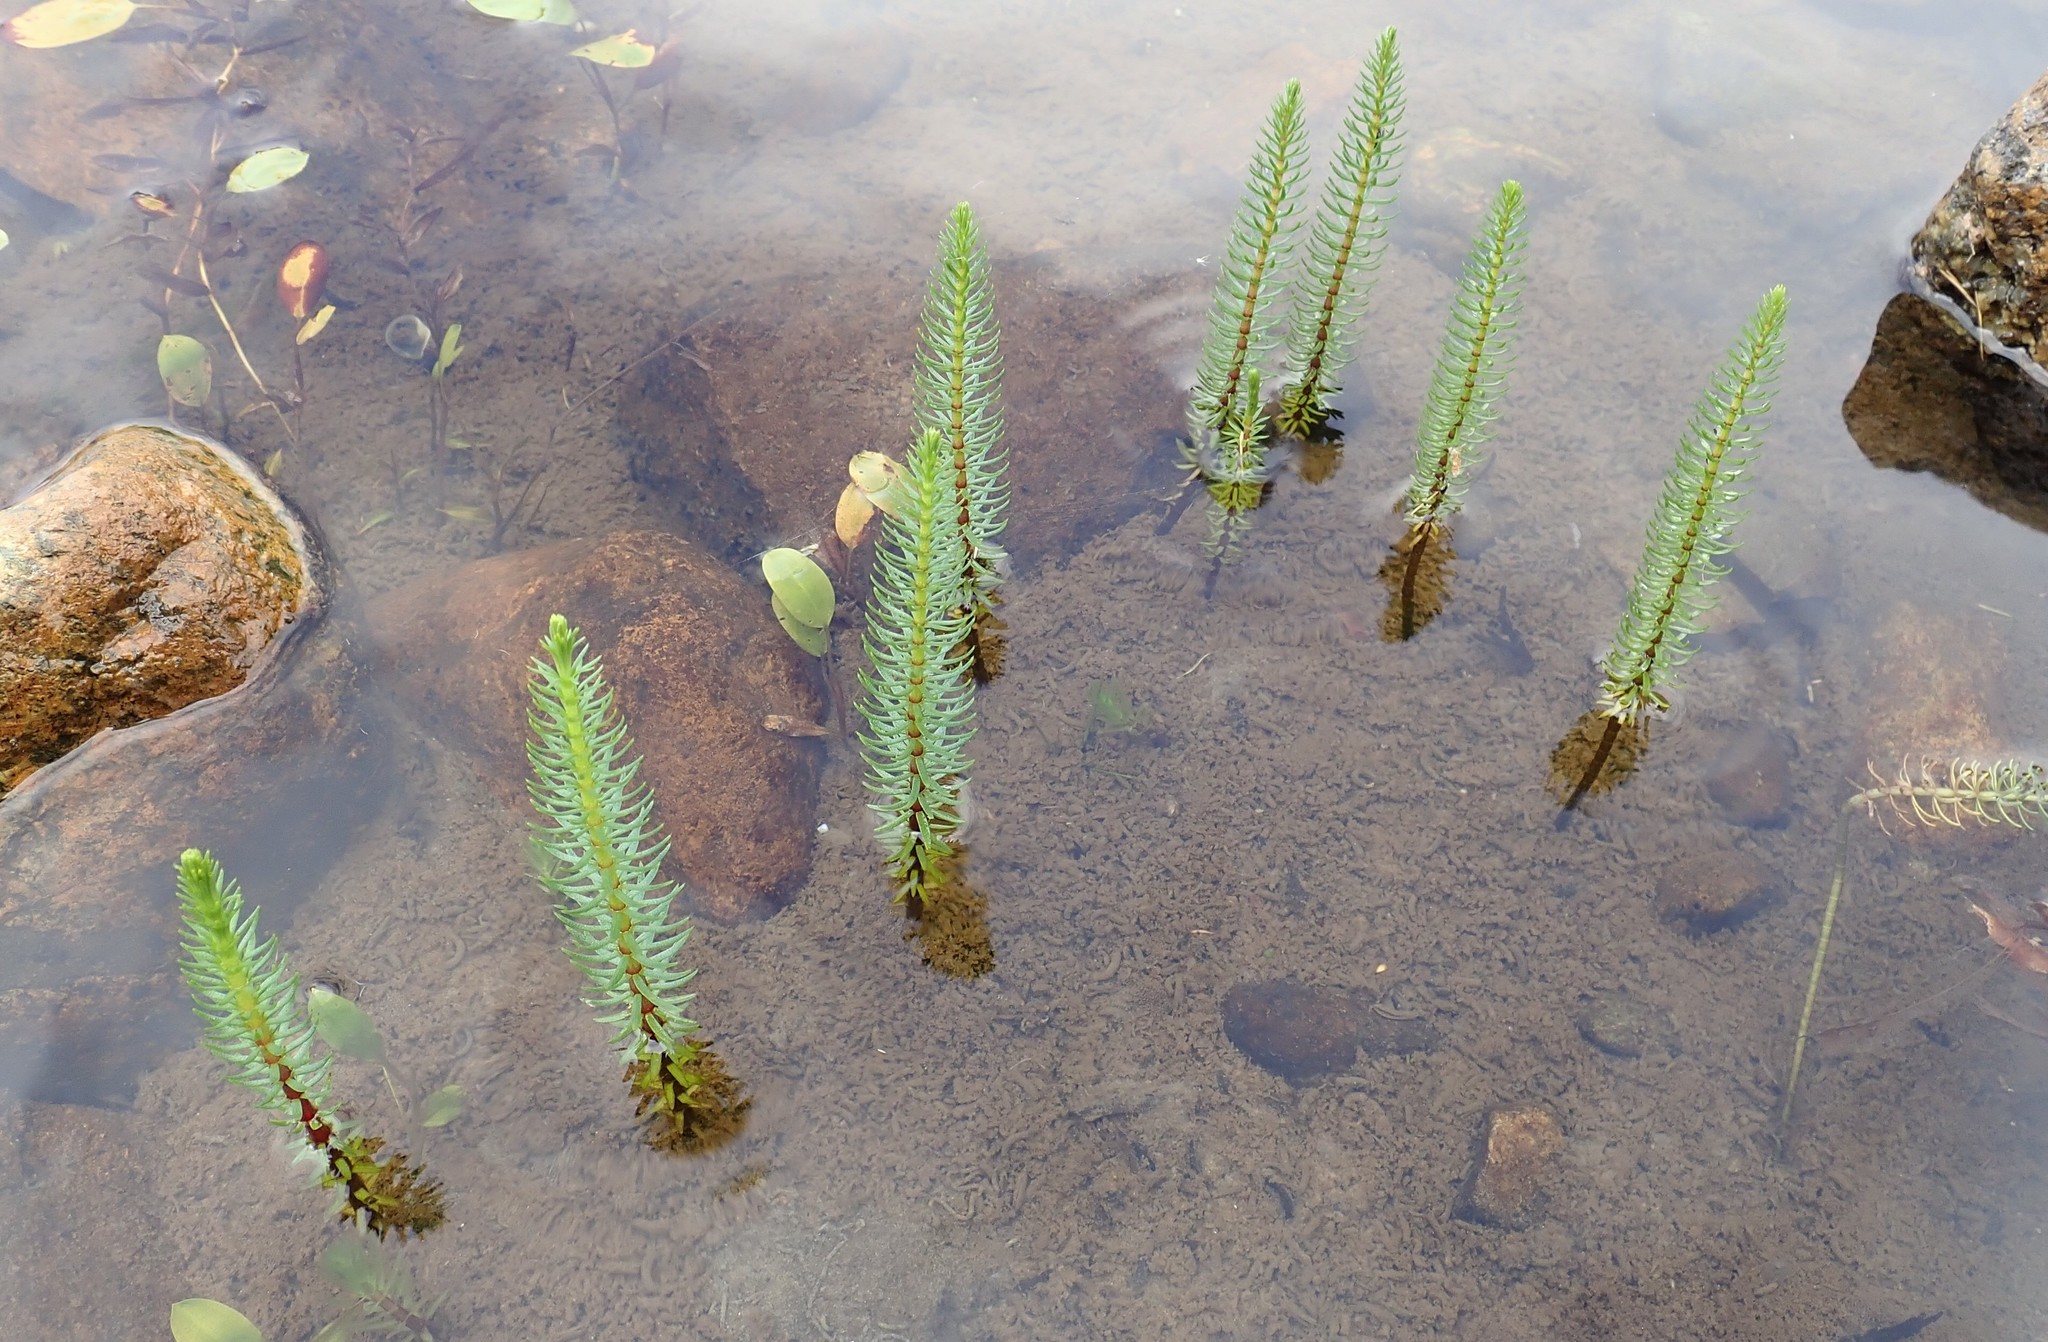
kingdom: Plantae
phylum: Tracheophyta
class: Magnoliopsida
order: Lamiales
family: Plantaginaceae
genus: Hippuris
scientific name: Hippuris vulgaris
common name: Mare's-tail
